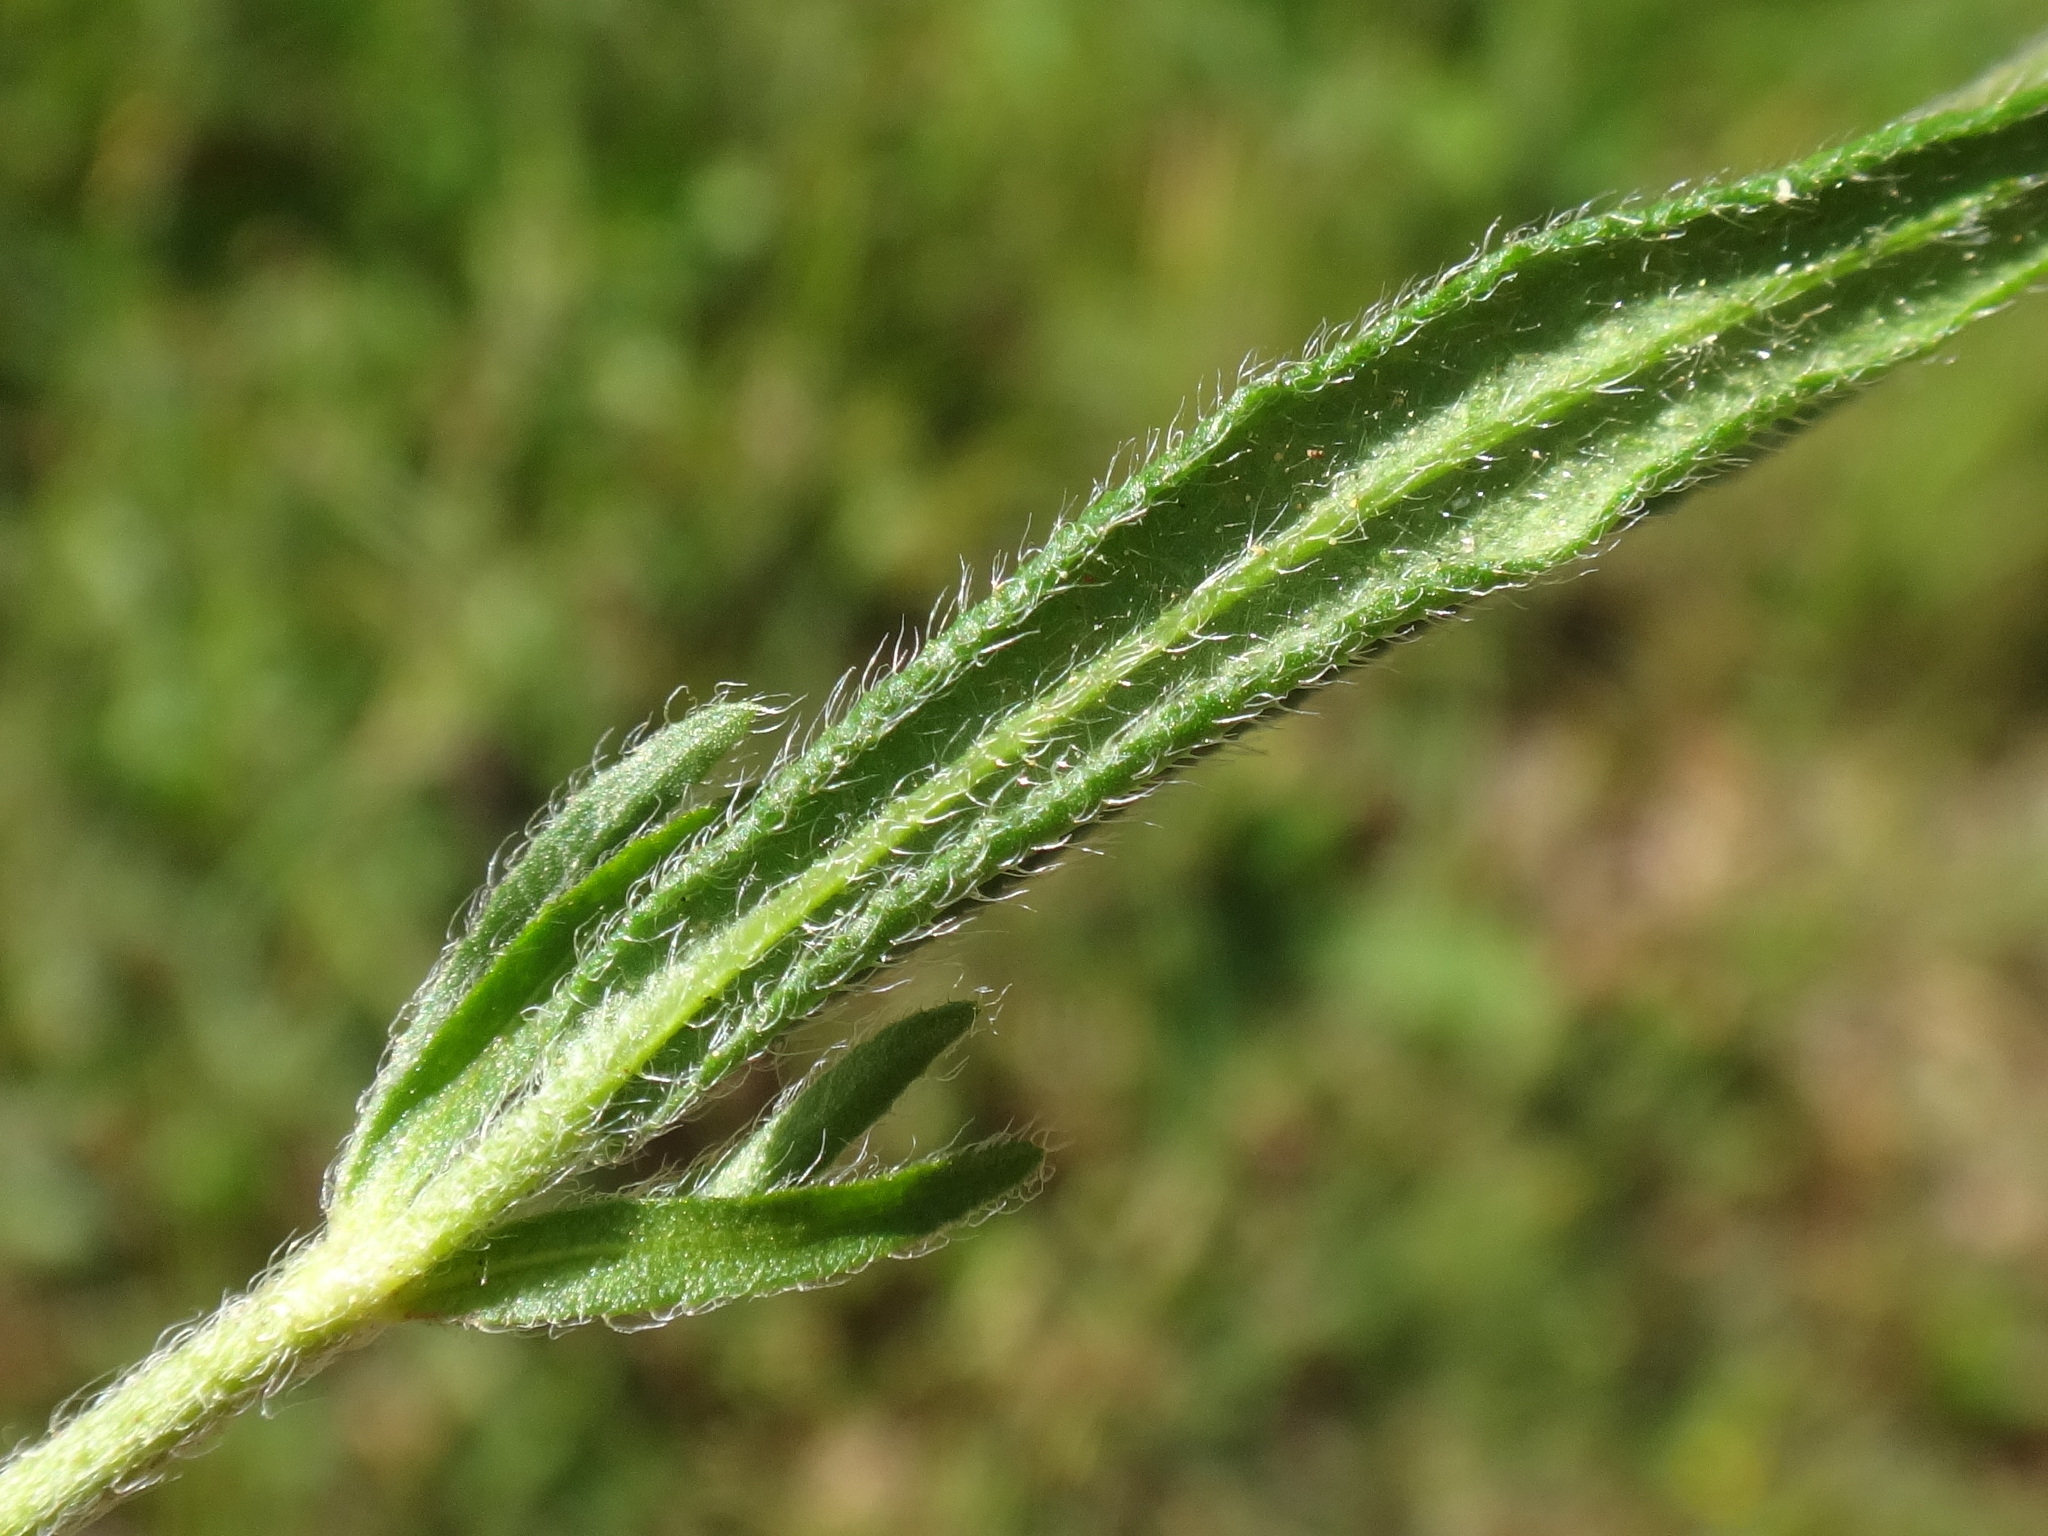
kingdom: Plantae
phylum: Tracheophyta
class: Magnoliopsida
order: Malvales
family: Cistaceae
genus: Helianthemum
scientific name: Helianthemum nummularium
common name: Common rock-rose
